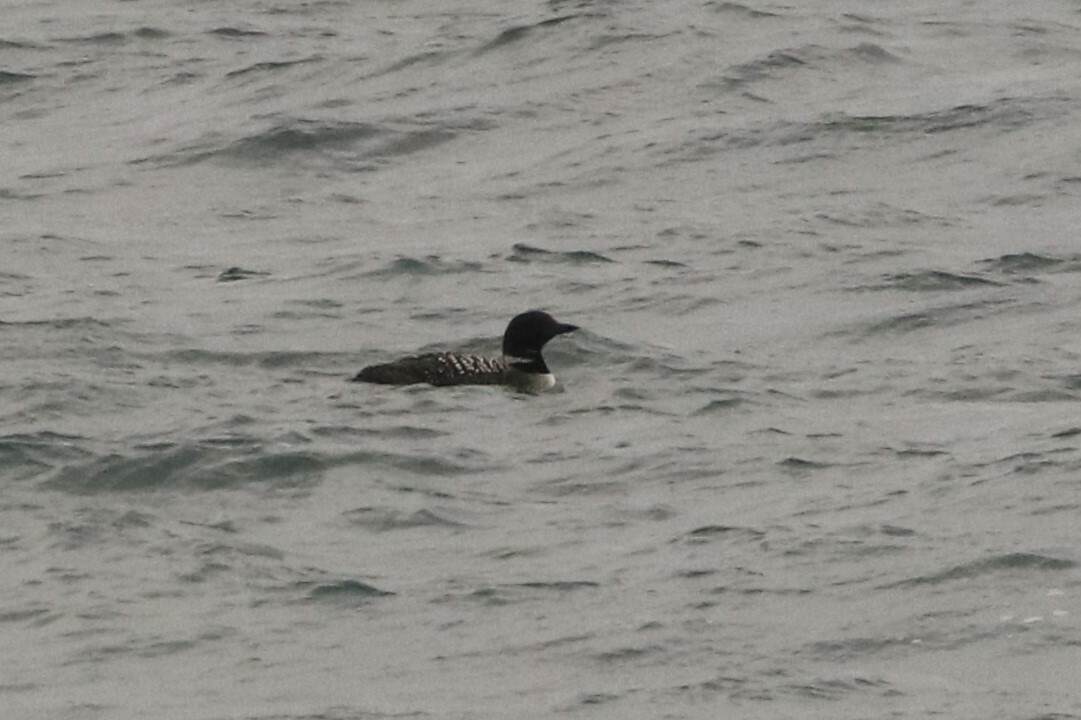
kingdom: Animalia
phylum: Chordata
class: Aves
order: Gaviiformes
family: Gaviidae
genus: Gavia
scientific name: Gavia immer
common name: Common loon
